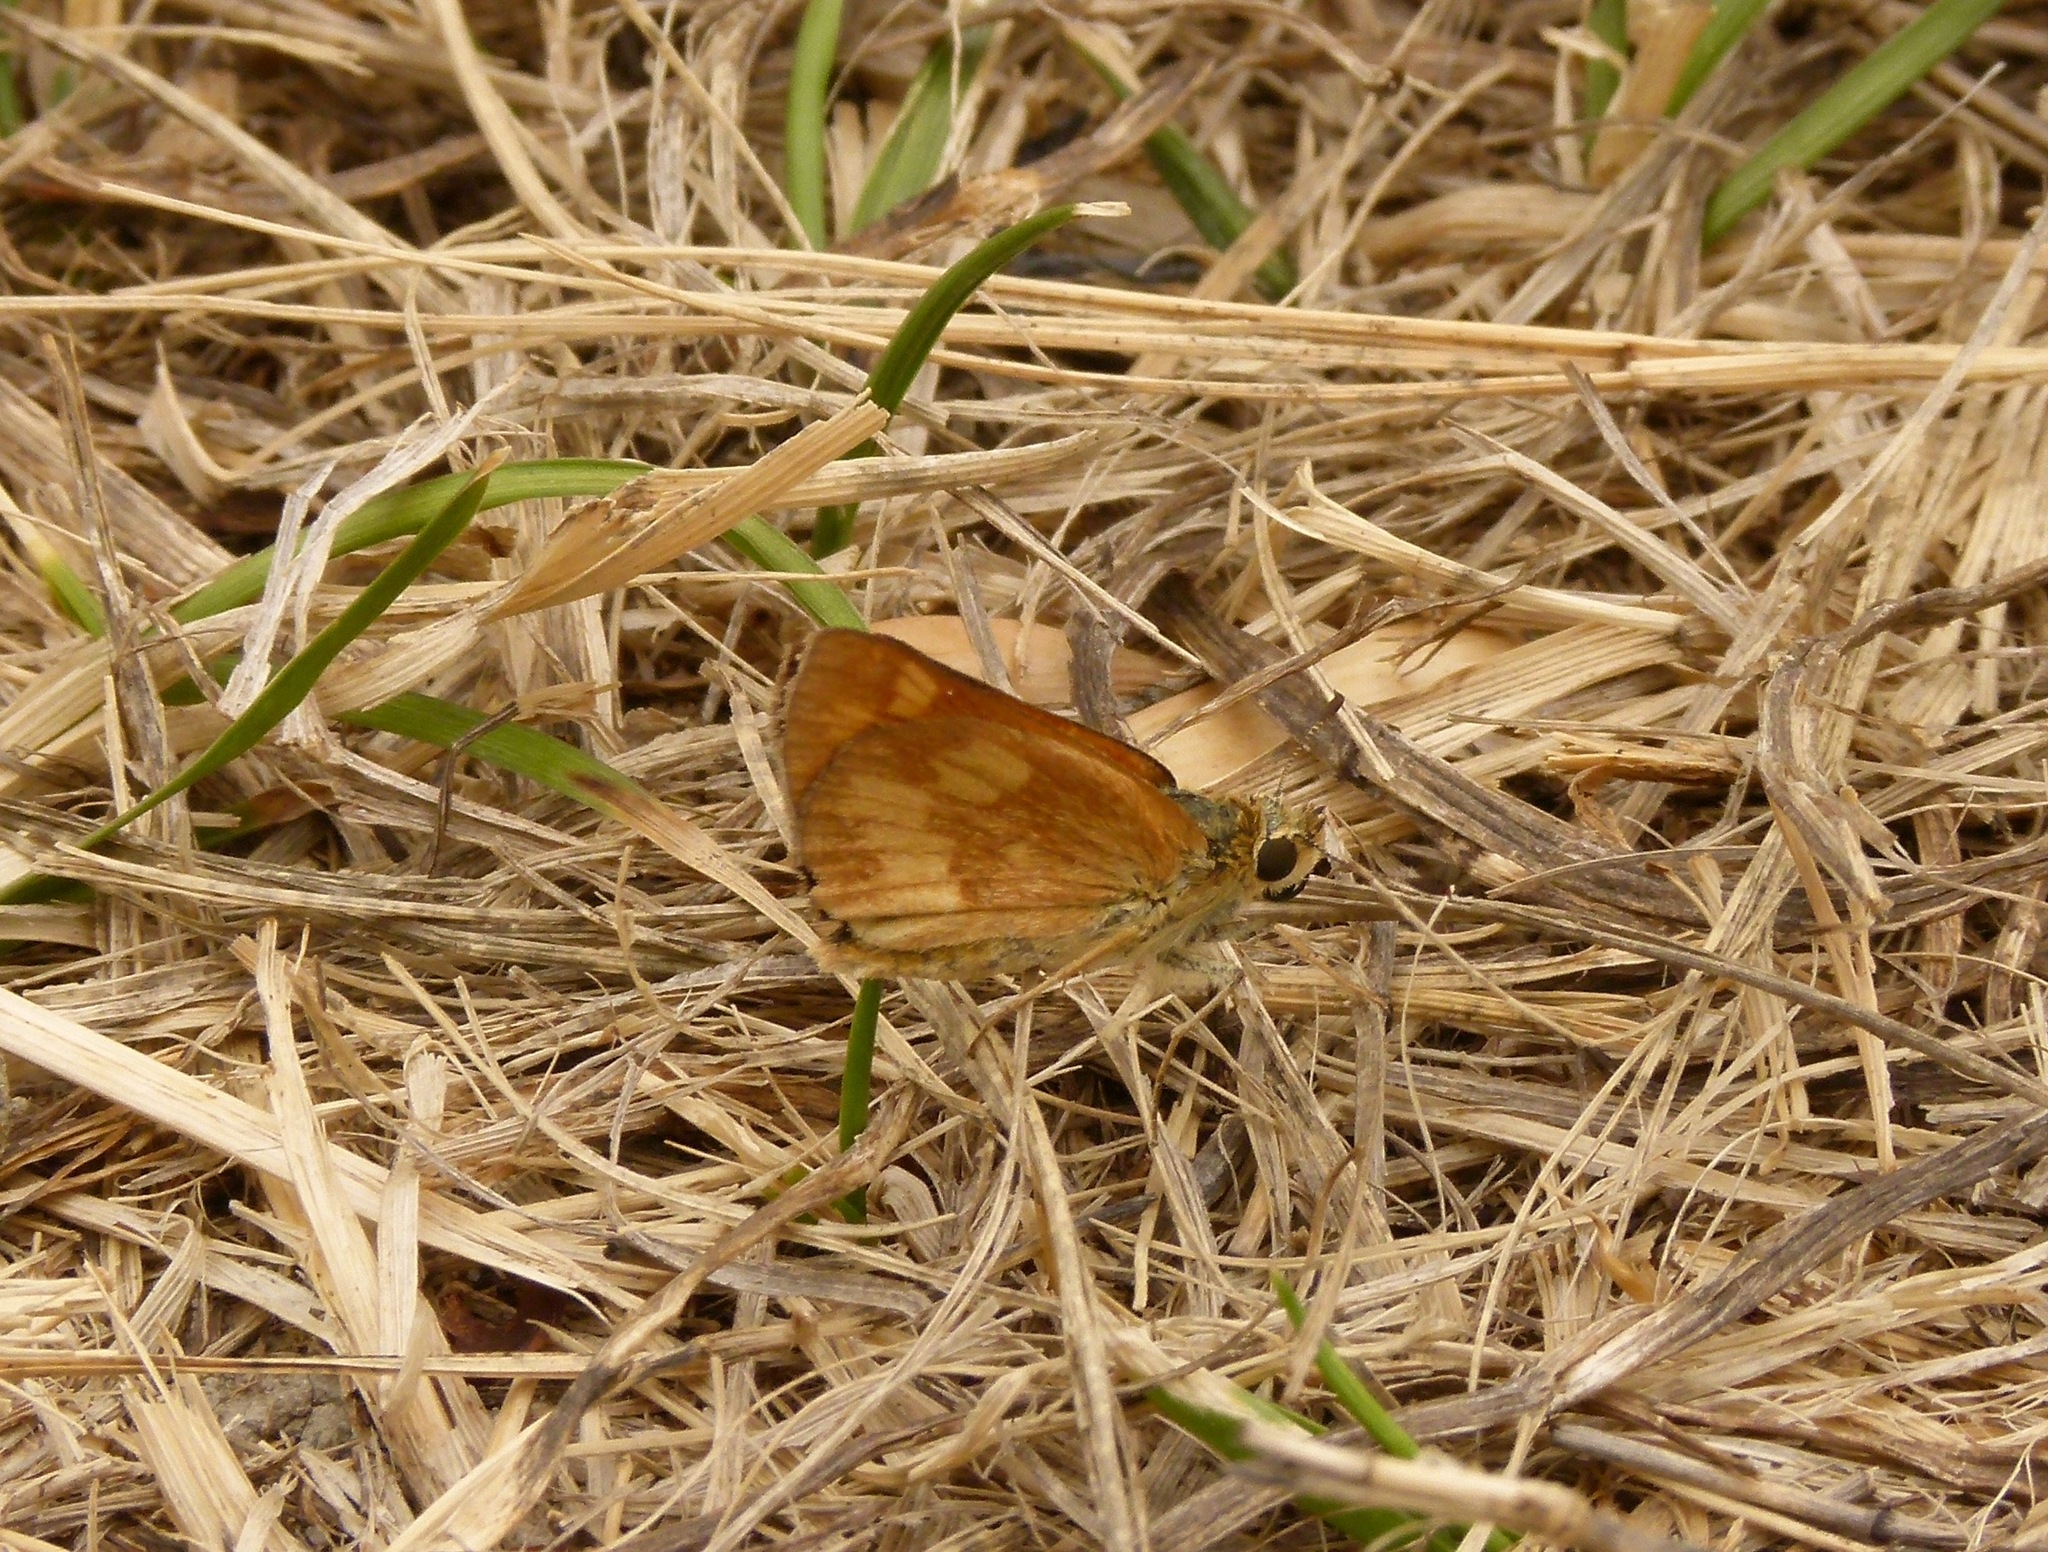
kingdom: Animalia
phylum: Arthropoda
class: Insecta
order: Lepidoptera
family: Hesperiidae
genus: Ochlodes
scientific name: Ochlodes sylvanoides
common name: Woodland skipper
